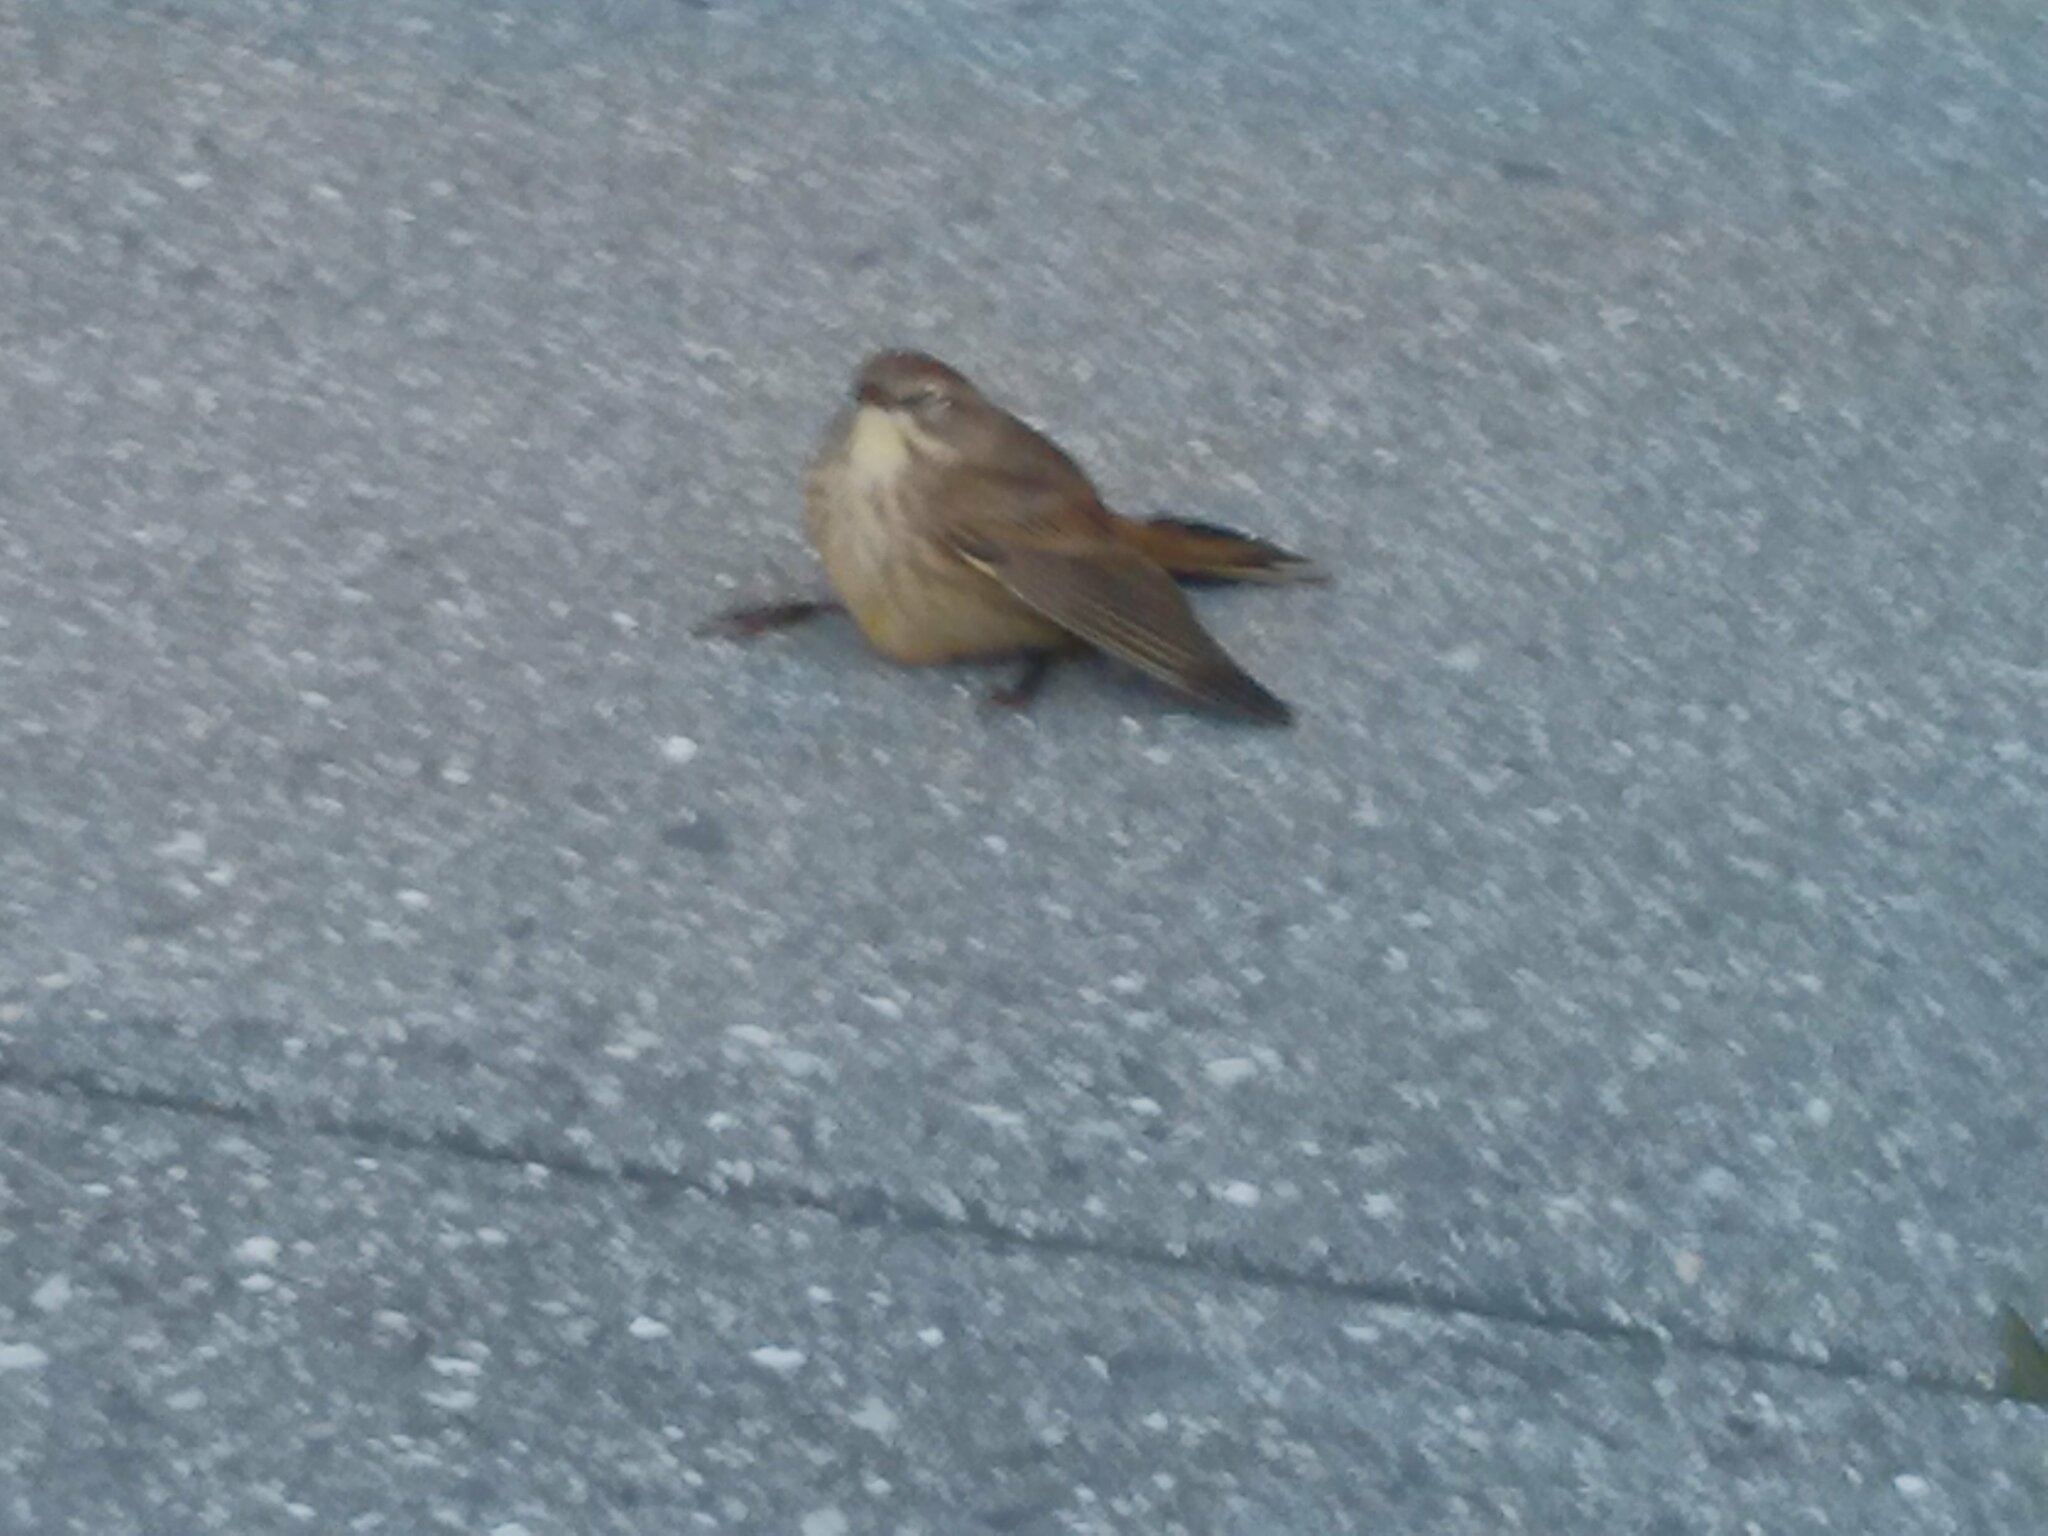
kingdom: Animalia
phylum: Chordata
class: Aves
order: Passeriformes
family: Parulidae
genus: Setophaga
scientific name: Setophaga palmarum
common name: Palm warbler
